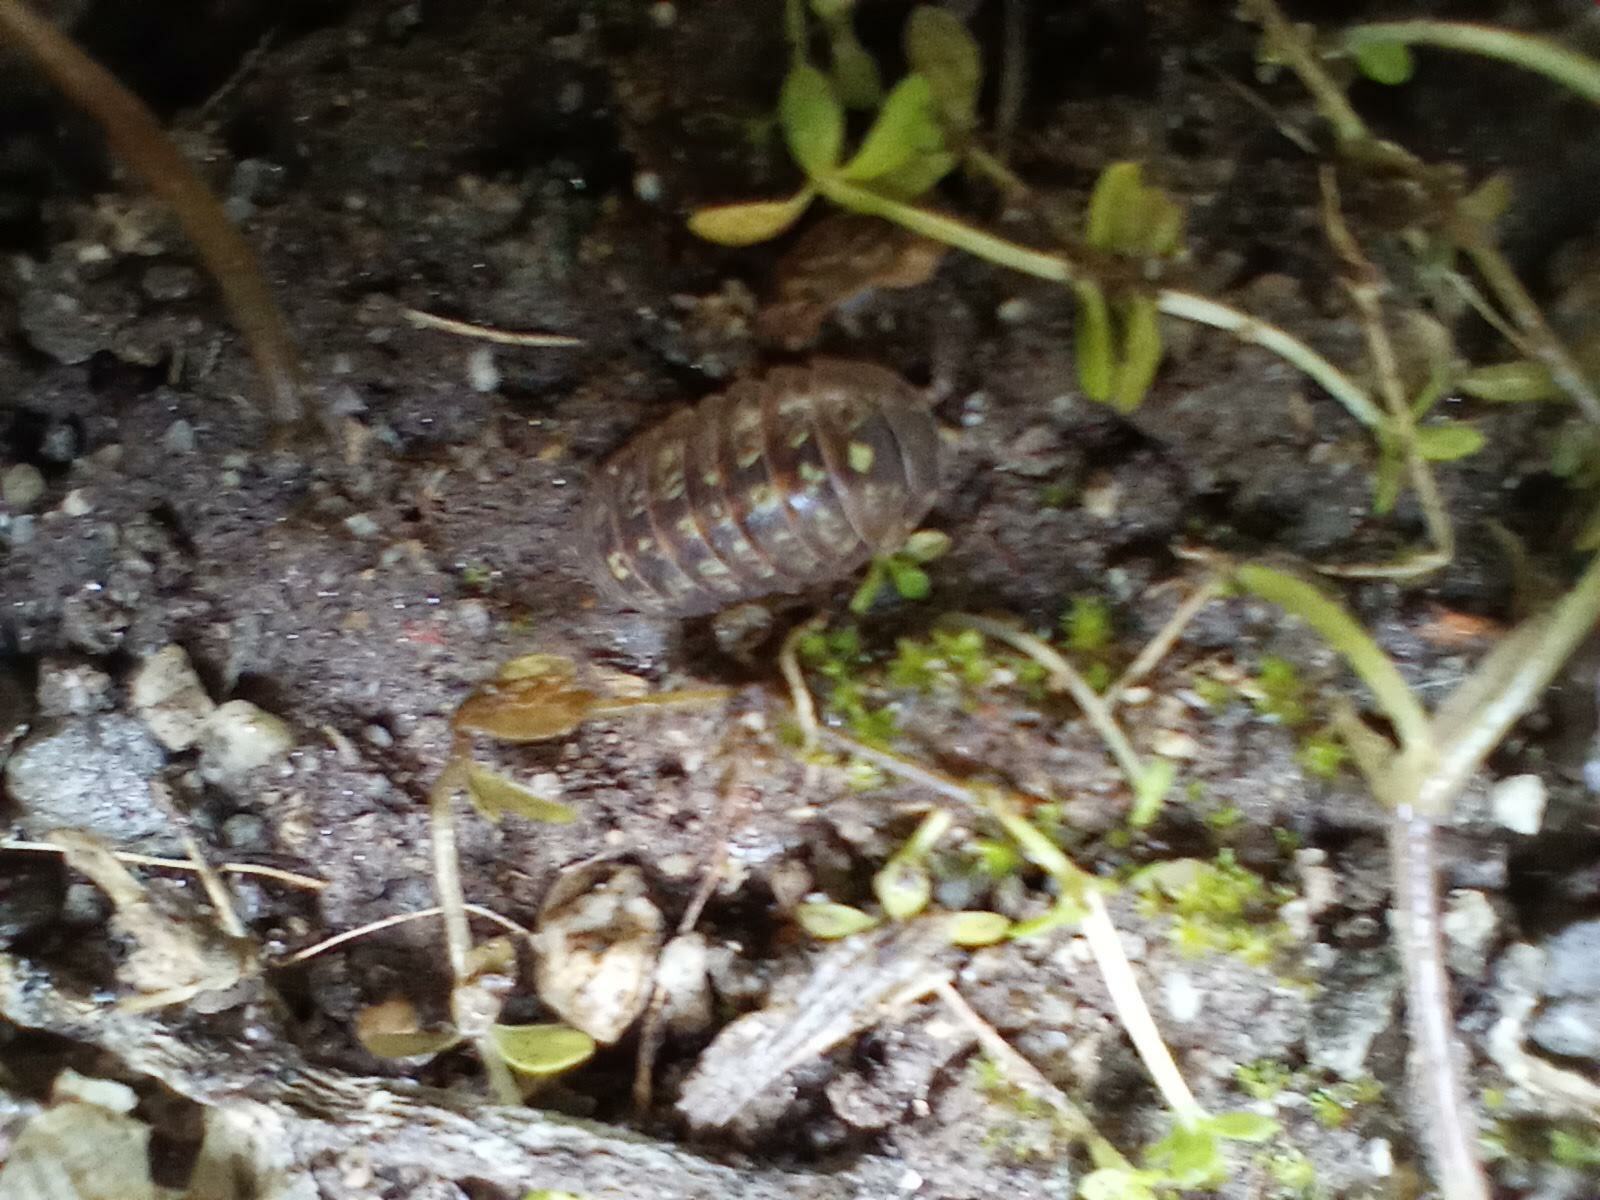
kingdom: Animalia
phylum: Arthropoda
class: Malacostraca
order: Isopoda
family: Armadillidiidae
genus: Armadillidium
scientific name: Armadillidium vulgare
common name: Common pill woodlouse
